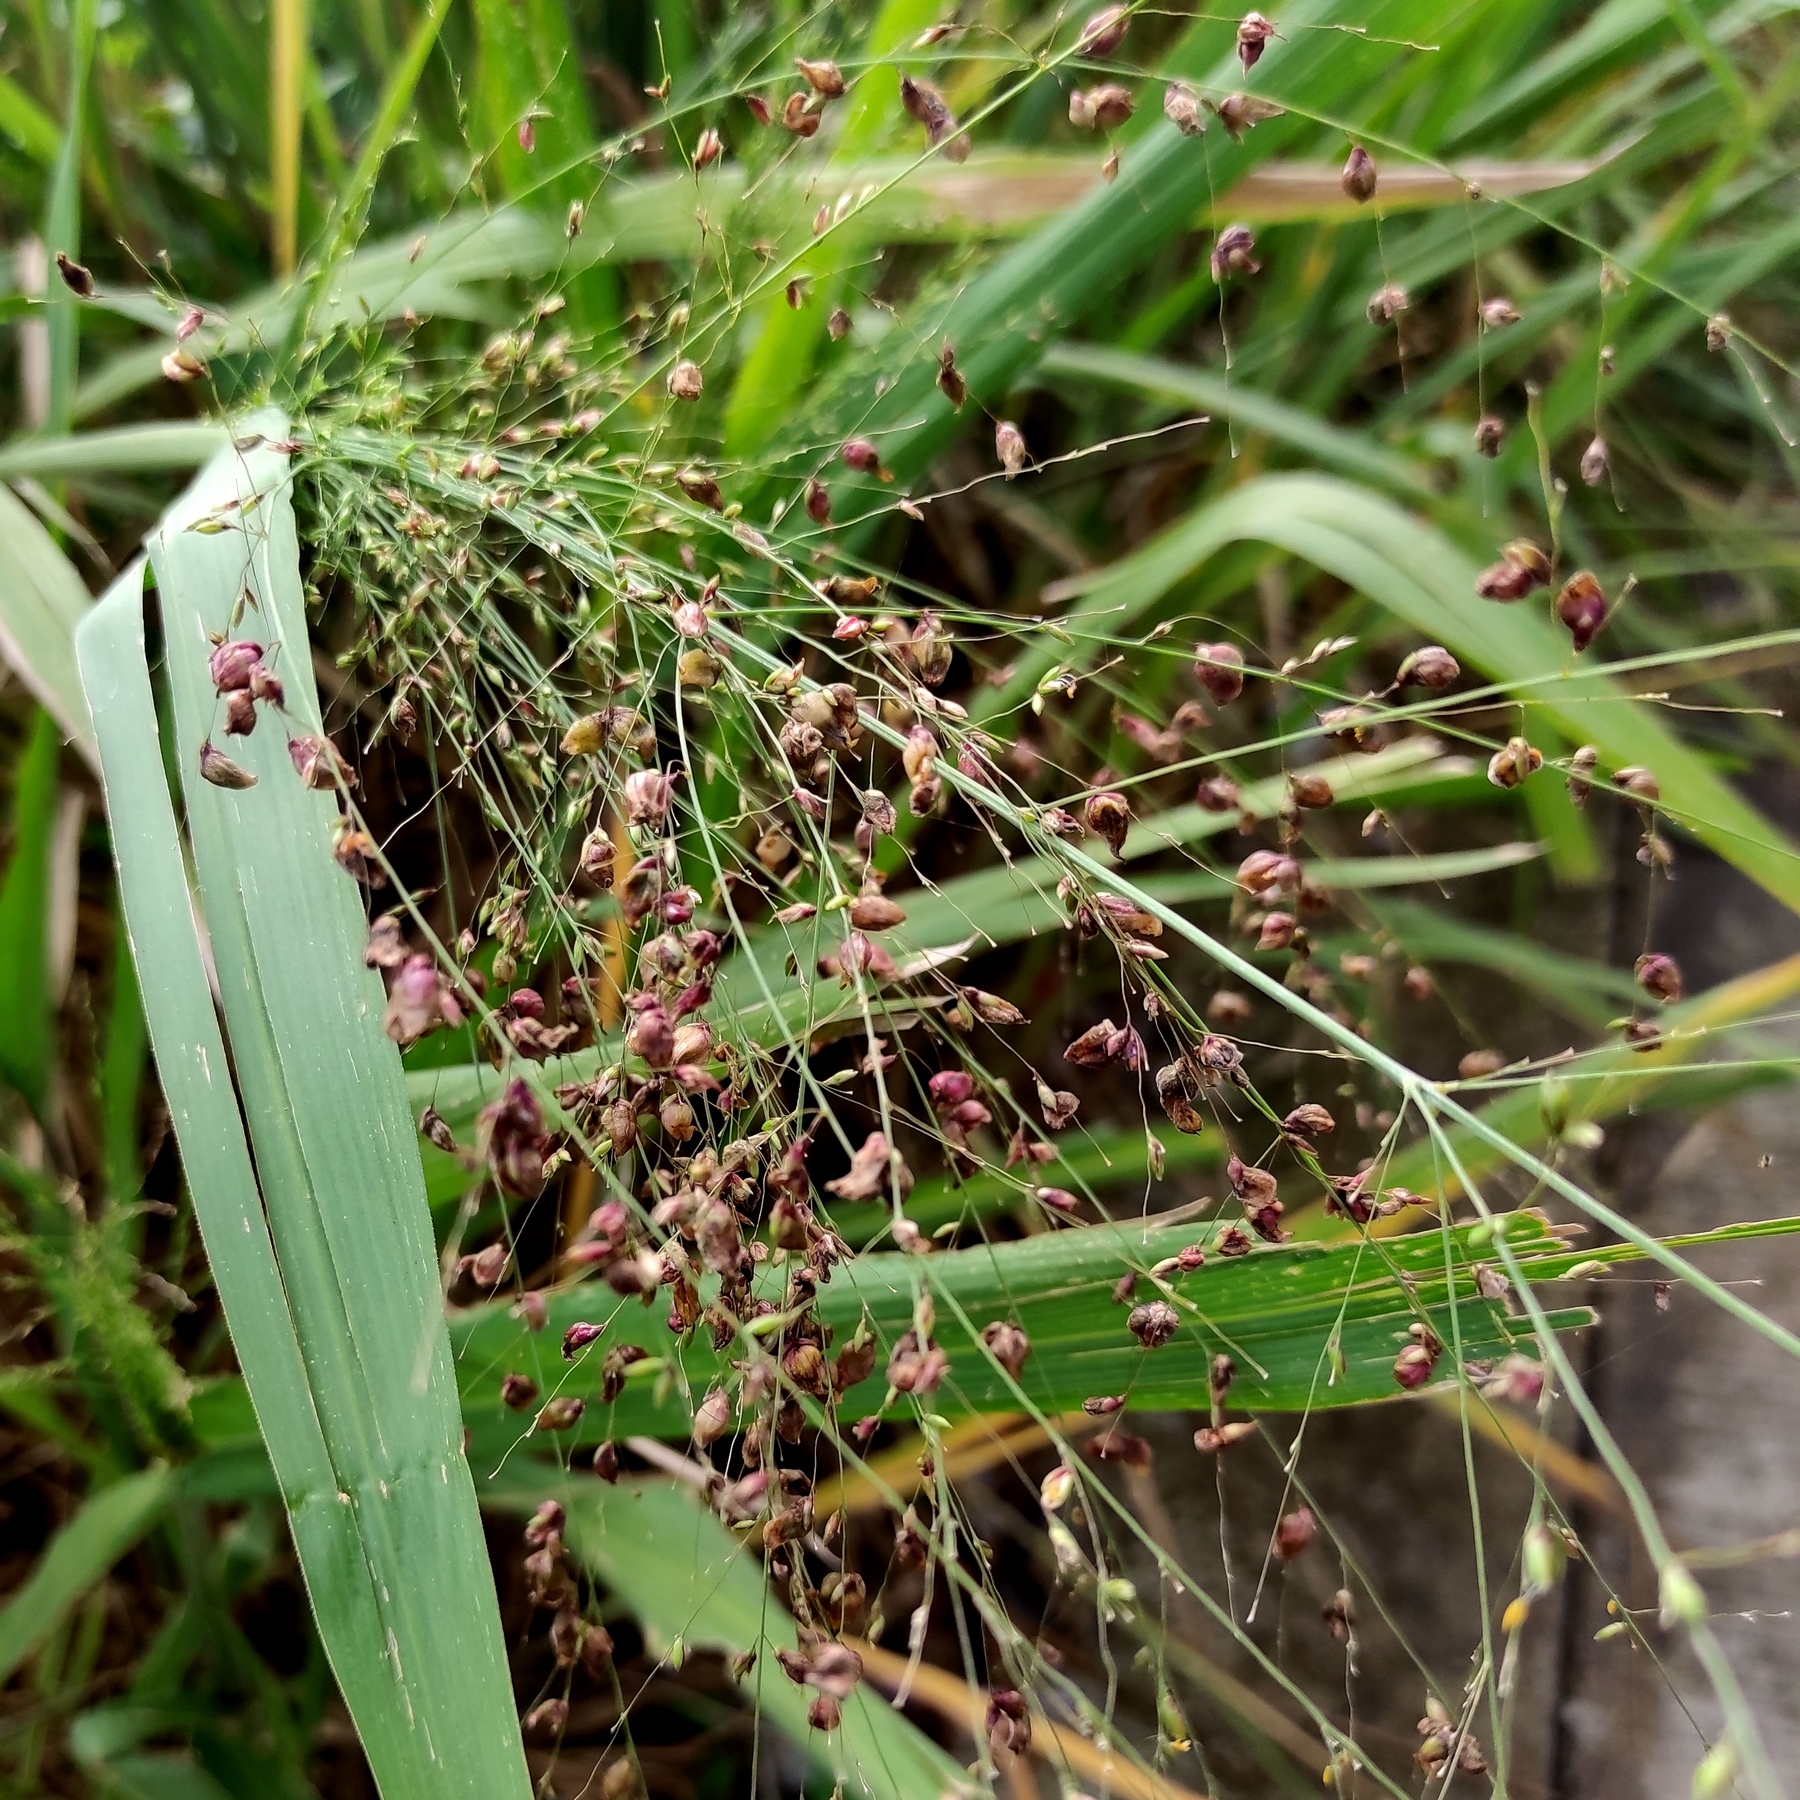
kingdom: Fungi
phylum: Basidiomycota
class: Exobasidiomycetes
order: Tilletiales
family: Tilletiaceae
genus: Conidiosporomyces
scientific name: Conidiosporomyces ayresii
